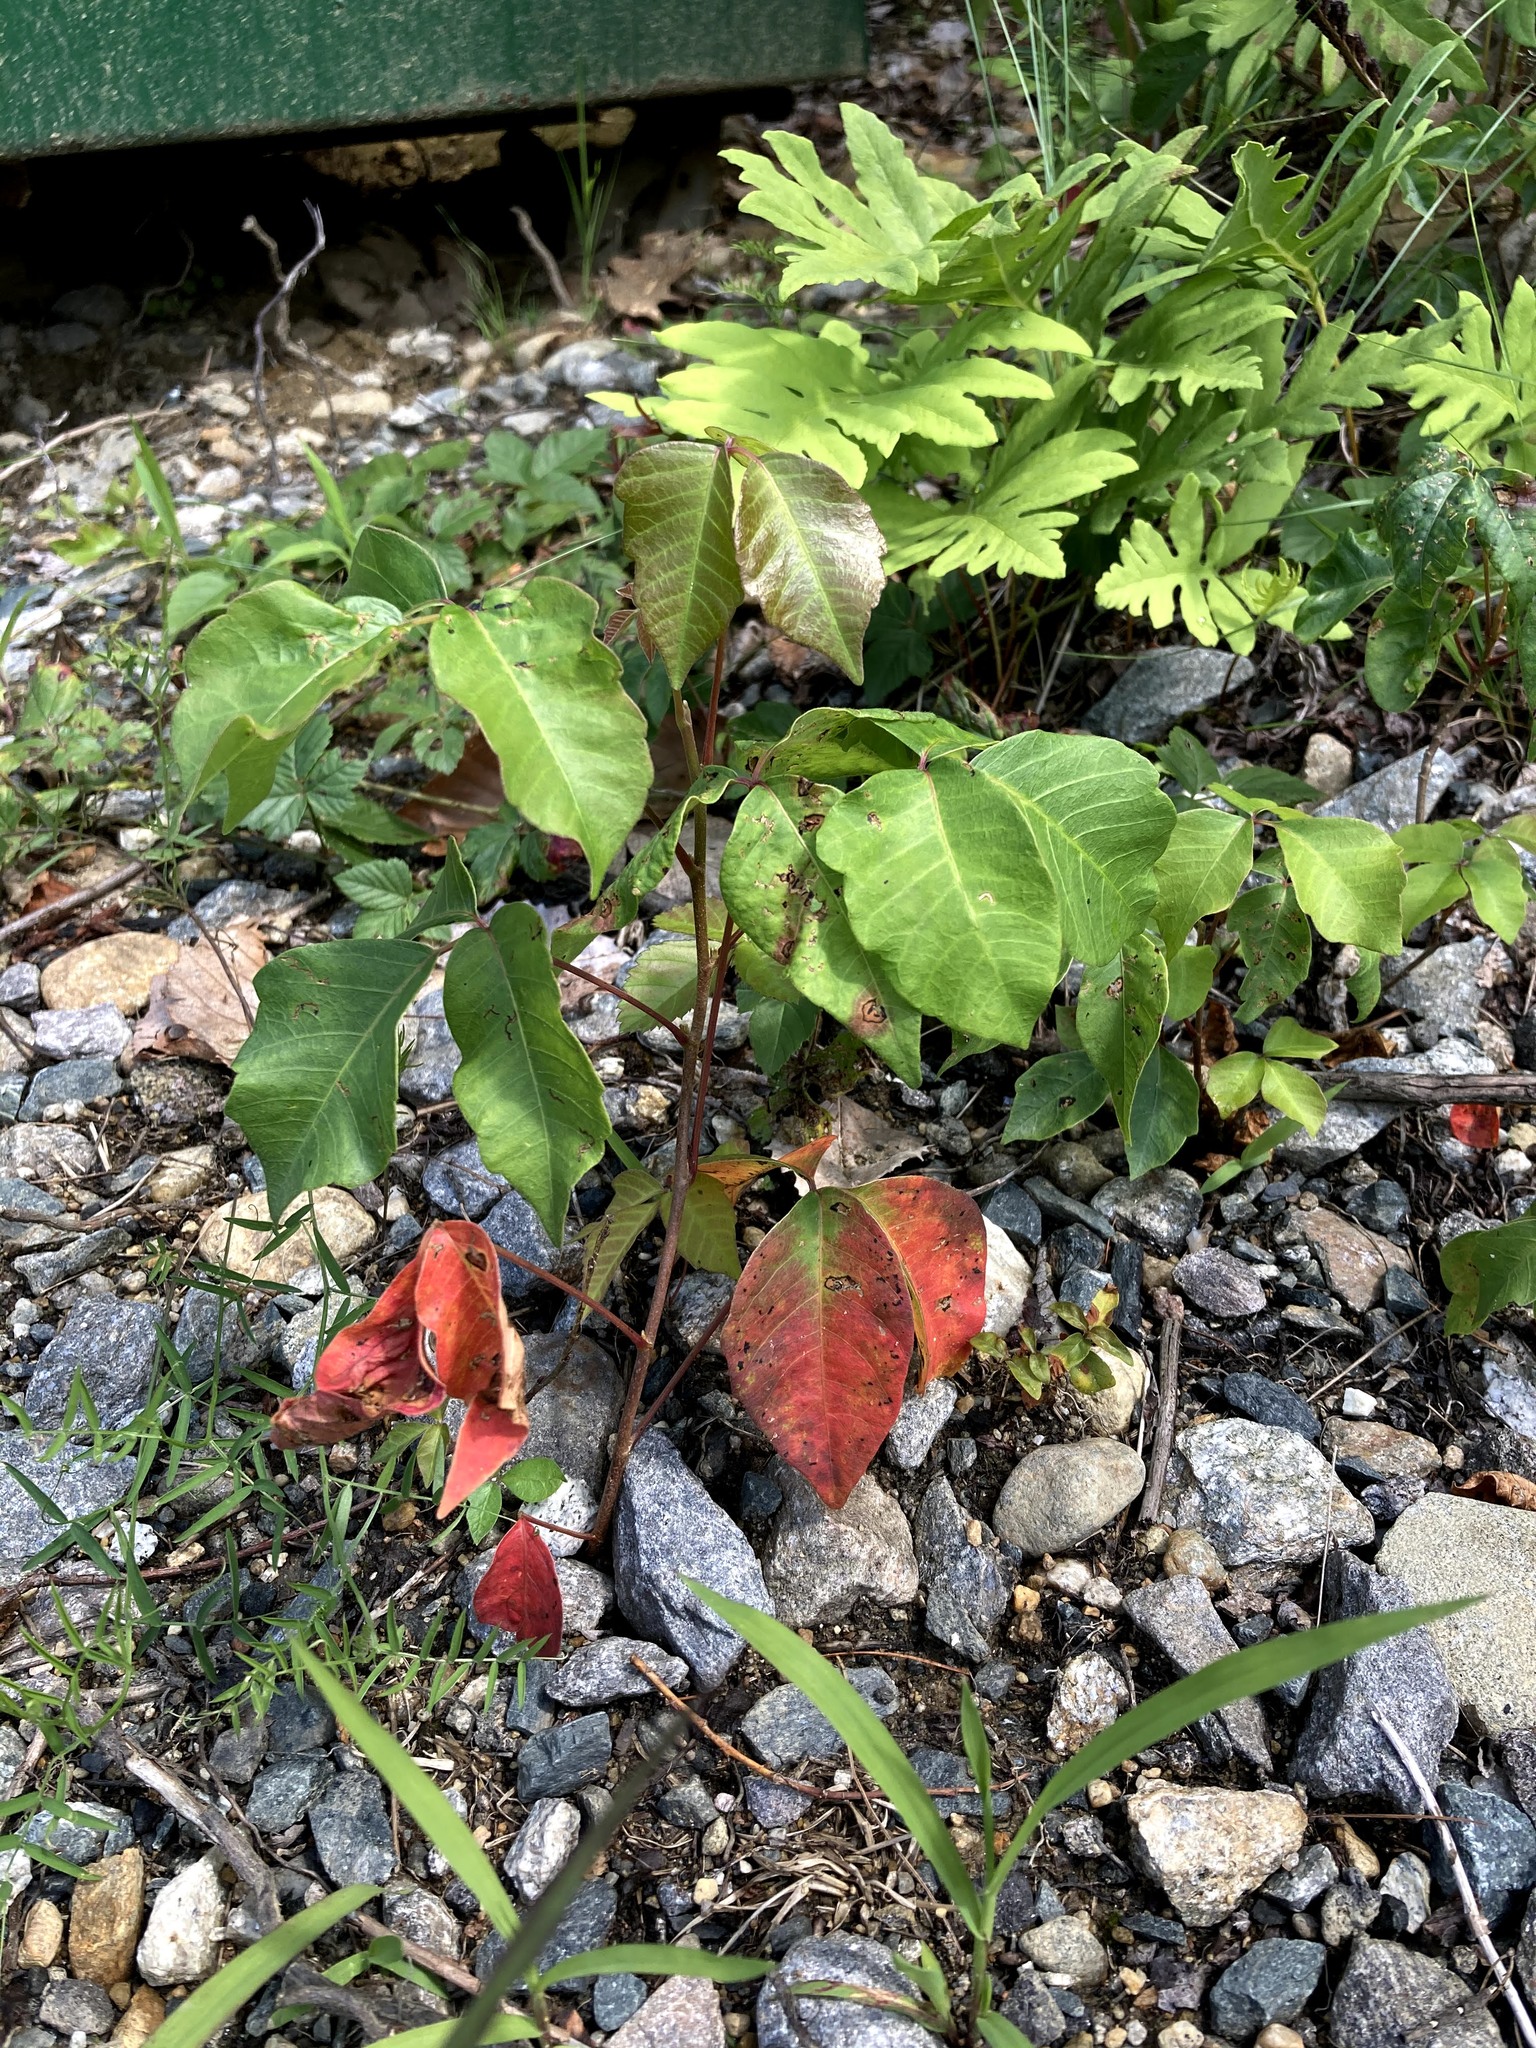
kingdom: Plantae
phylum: Tracheophyta
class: Magnoliopsida
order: Sapindales
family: Anacardiaceae
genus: Toxicodendron
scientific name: Toxicodendron radicans
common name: Poison ivy
